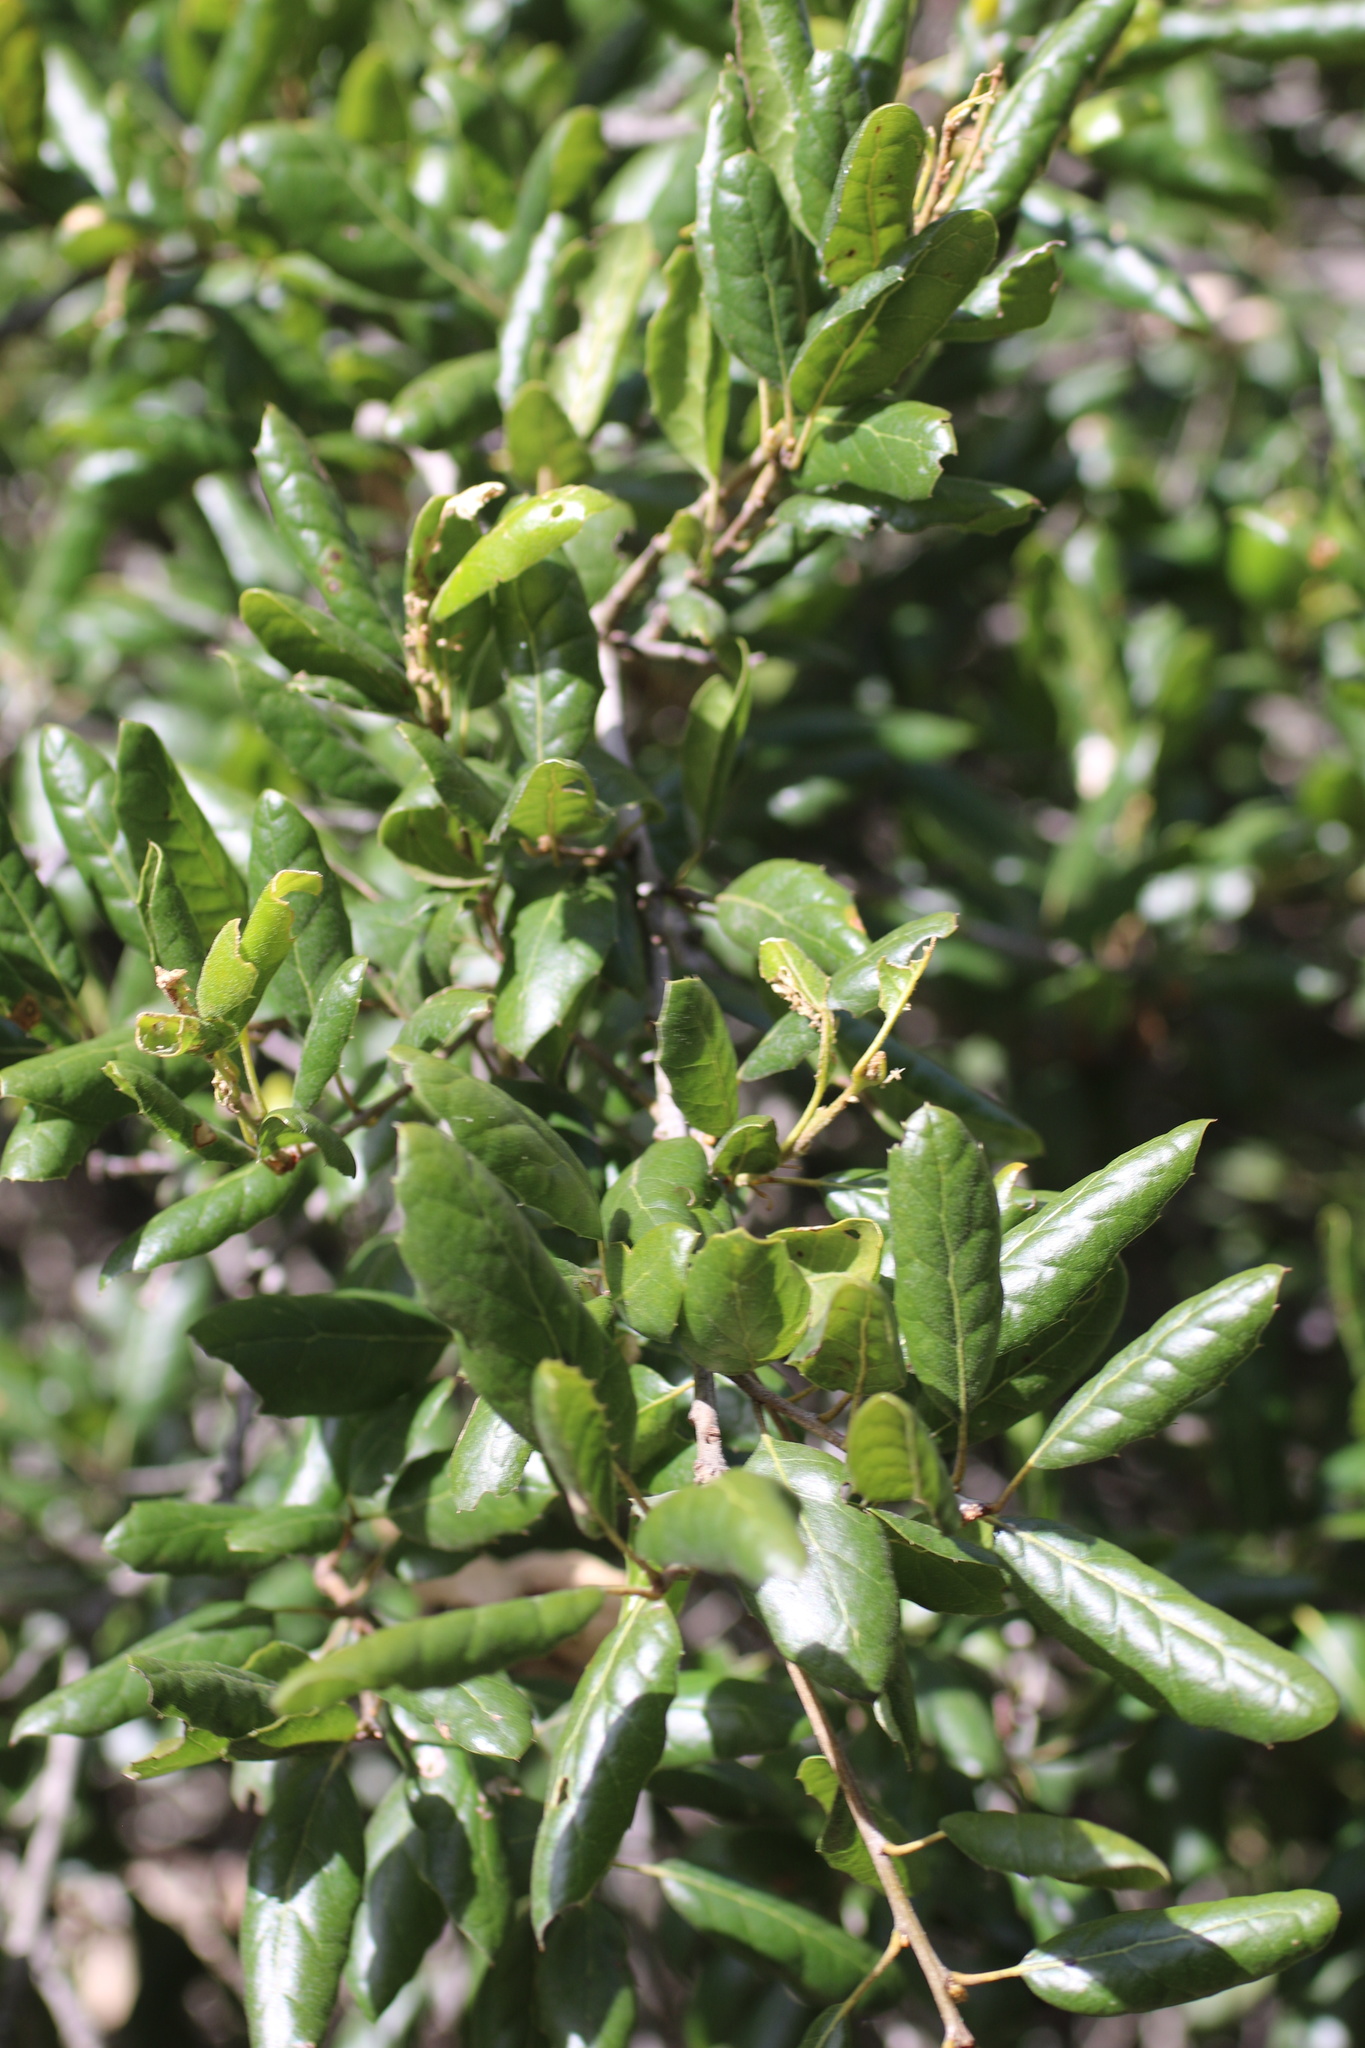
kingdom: Plantae
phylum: Tracheophyta
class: Magnoliopsida
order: Fagales
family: Fagaceae
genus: Quercus
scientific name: Quercus agrifolia
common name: California live oak
